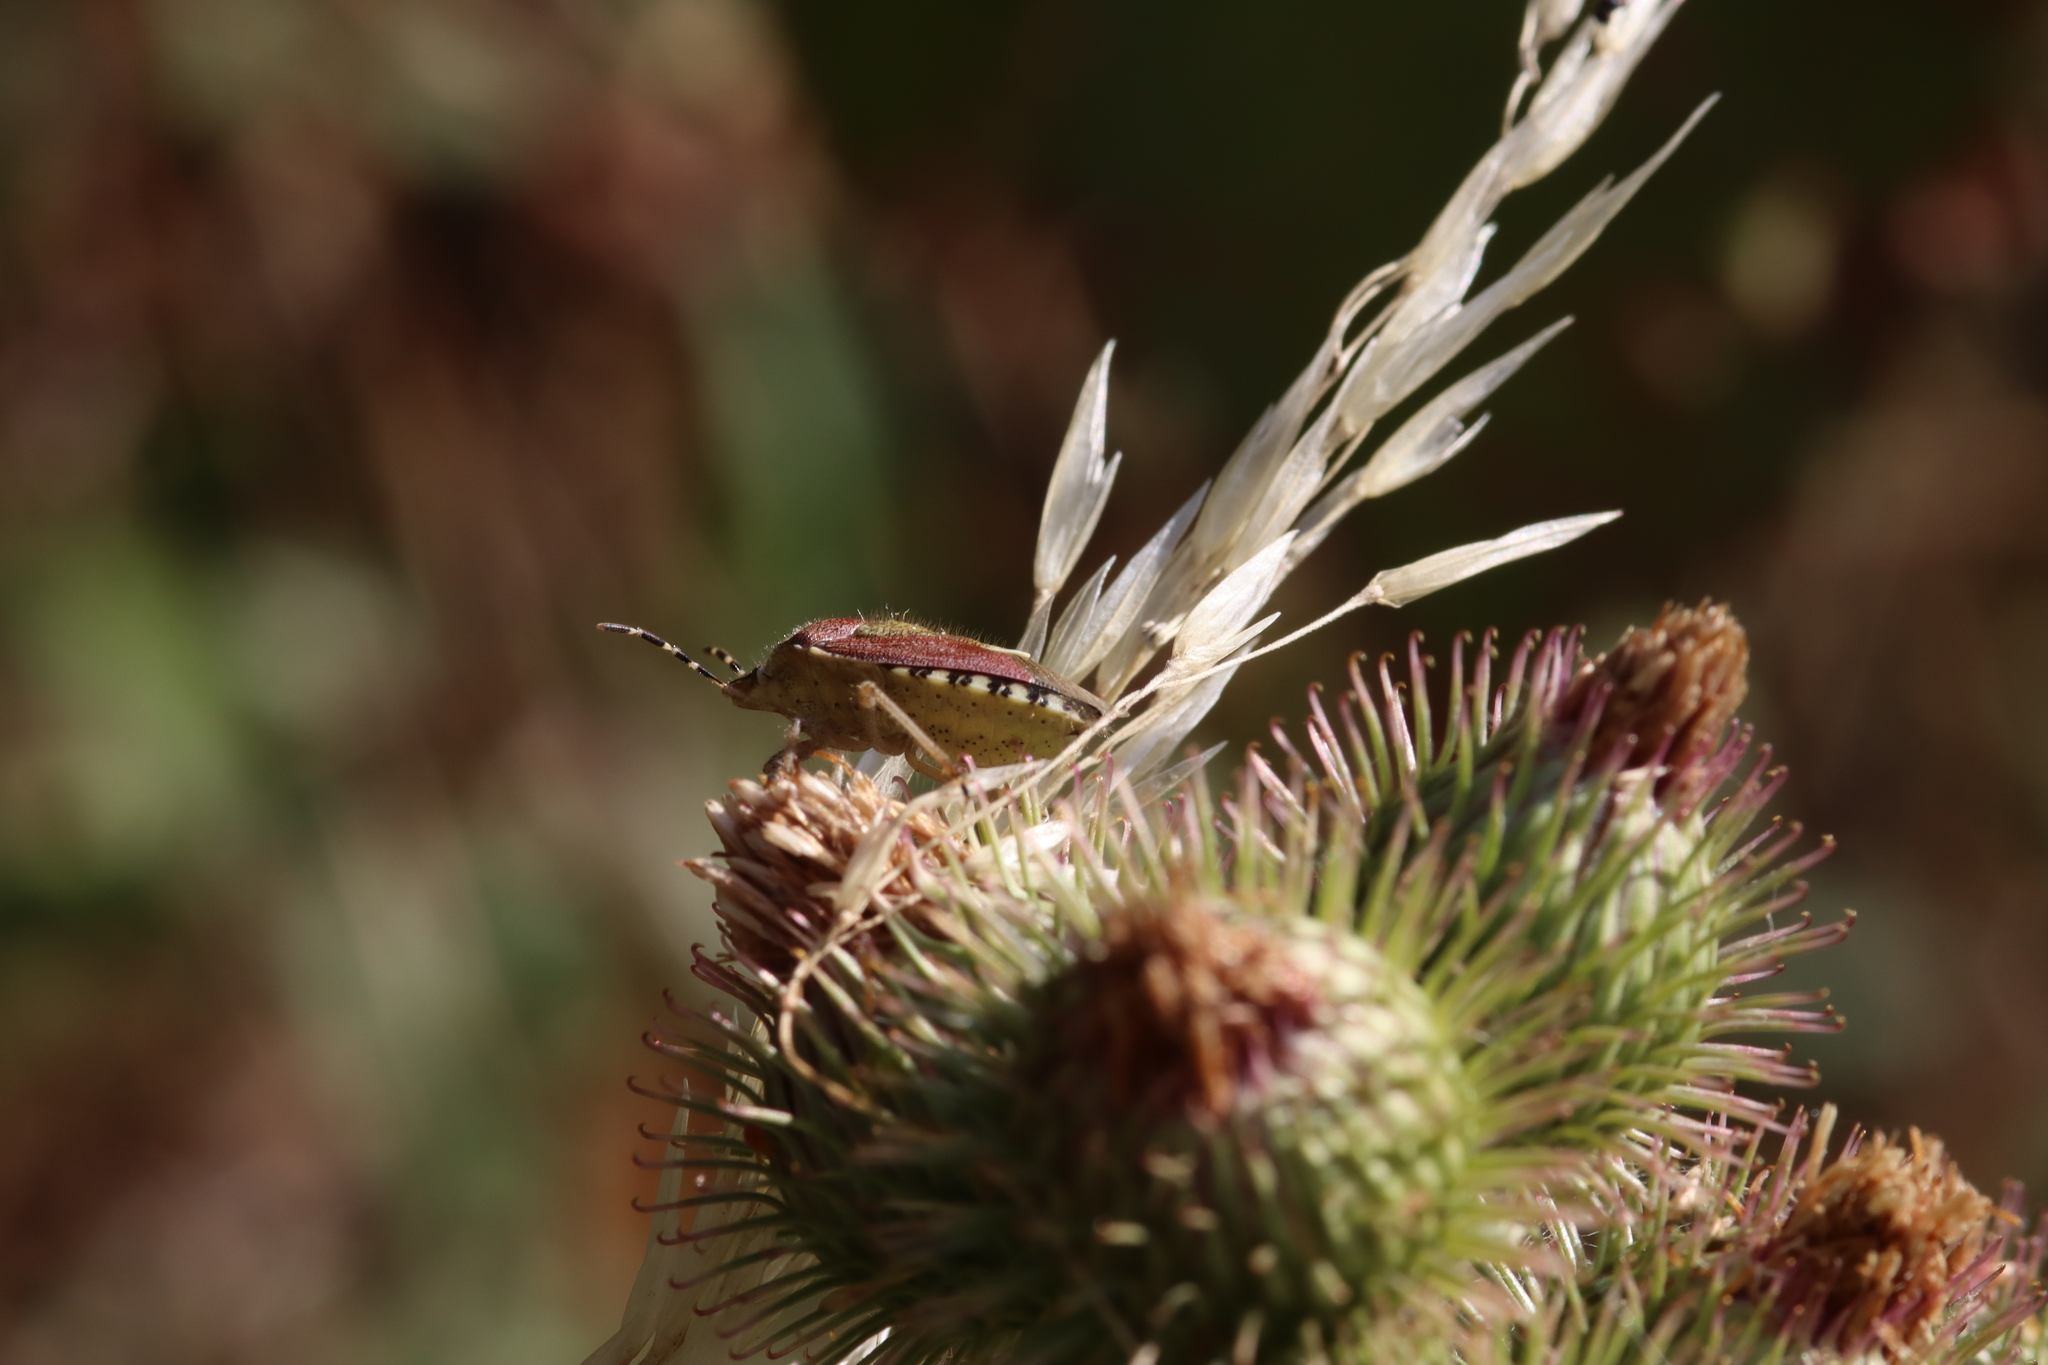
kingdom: Animalia
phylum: Arthropoda
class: Insecta
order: Hemiptera
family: Pentatomidae
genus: Dolycoris
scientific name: Dolycoris baccarum
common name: Sloe bug
